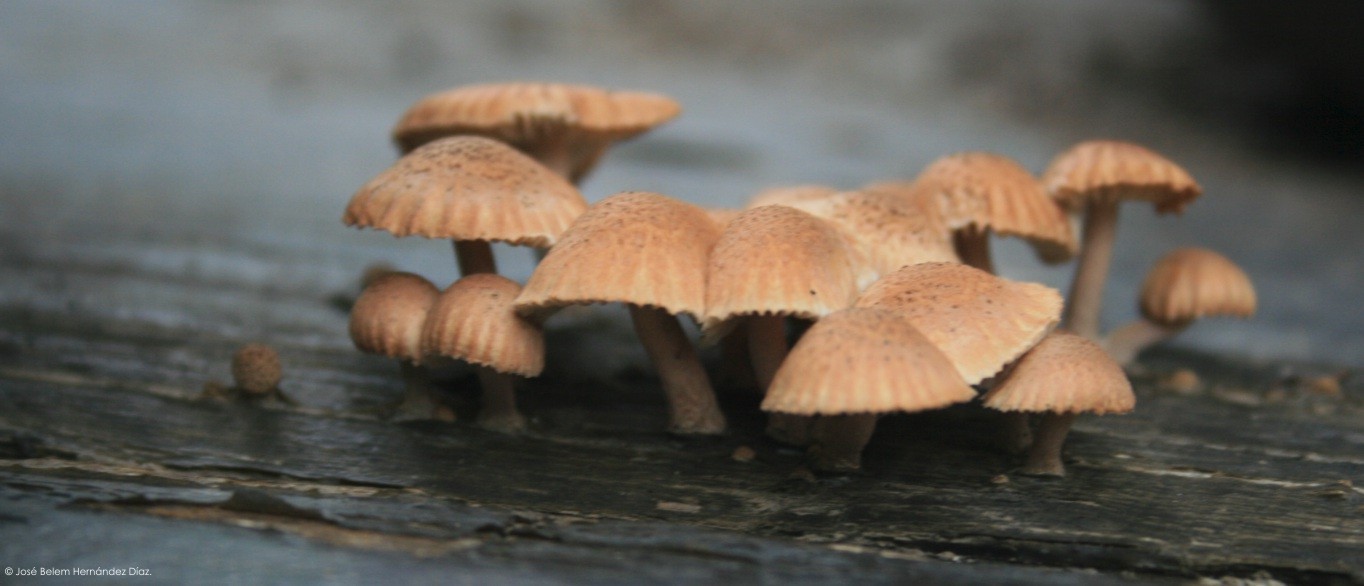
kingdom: Fungi
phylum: Basidiomycota
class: Agaricomycetes
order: Gloeophyllales
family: Gloeophyllaceae
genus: Heliocybe
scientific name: Heliocybe sulcata
